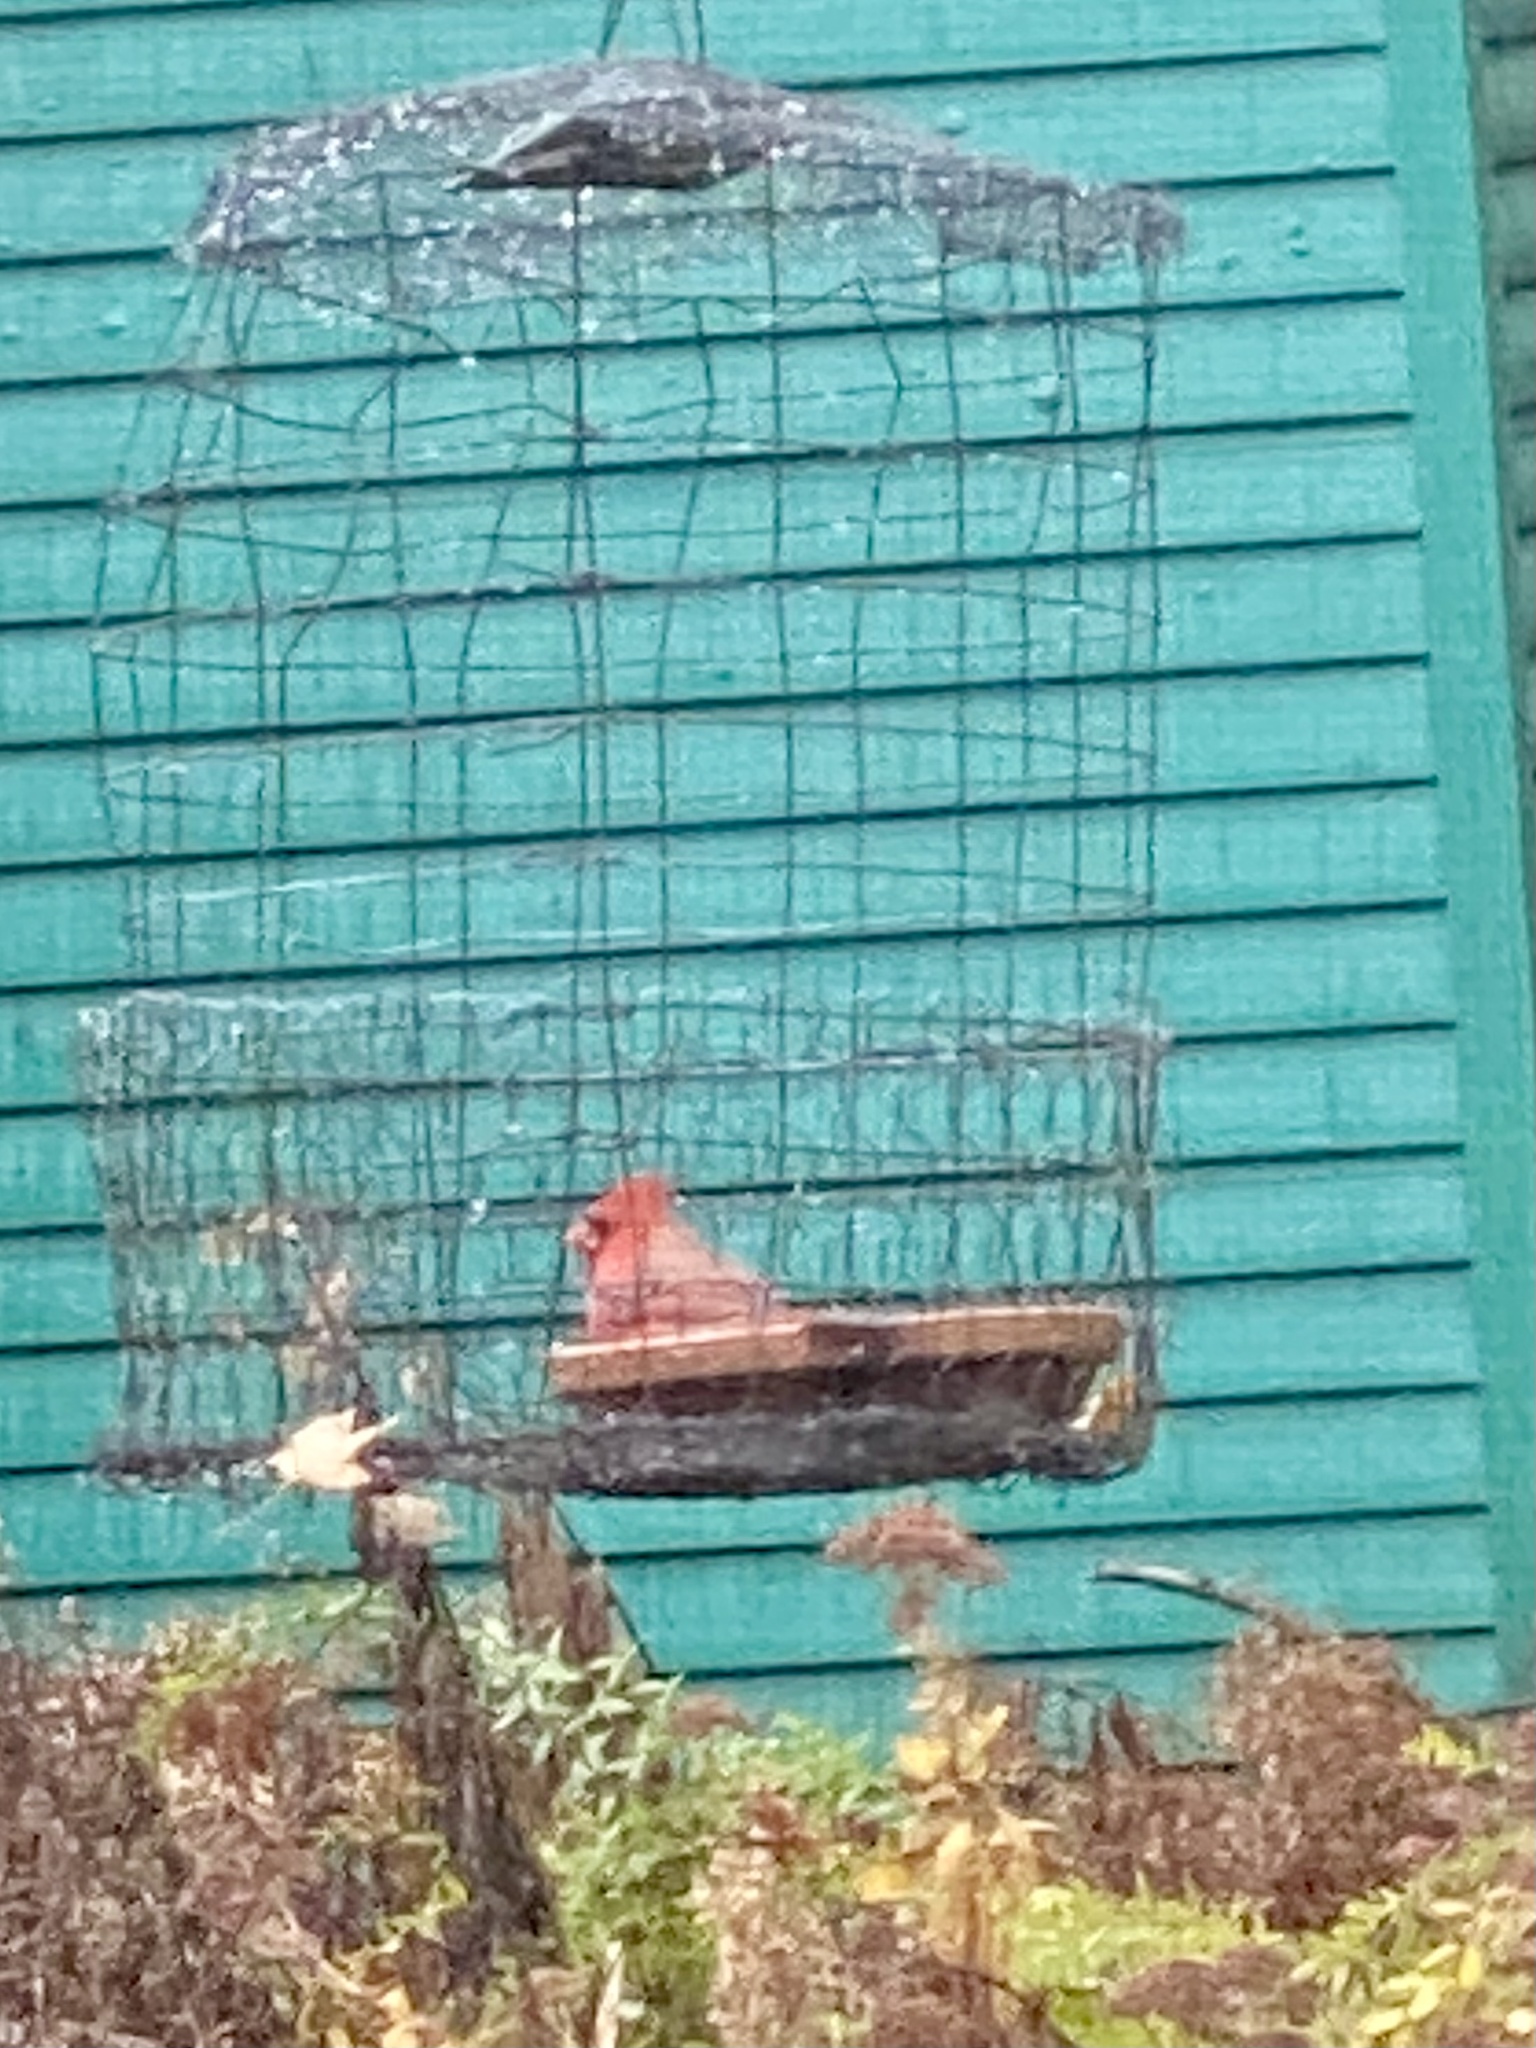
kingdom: Animalia
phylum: Chordata
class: Aves
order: Passeriformes
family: Cardinalidae
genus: Cardinalis
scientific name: Cardinalis cardinalis
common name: Northern cardinal
